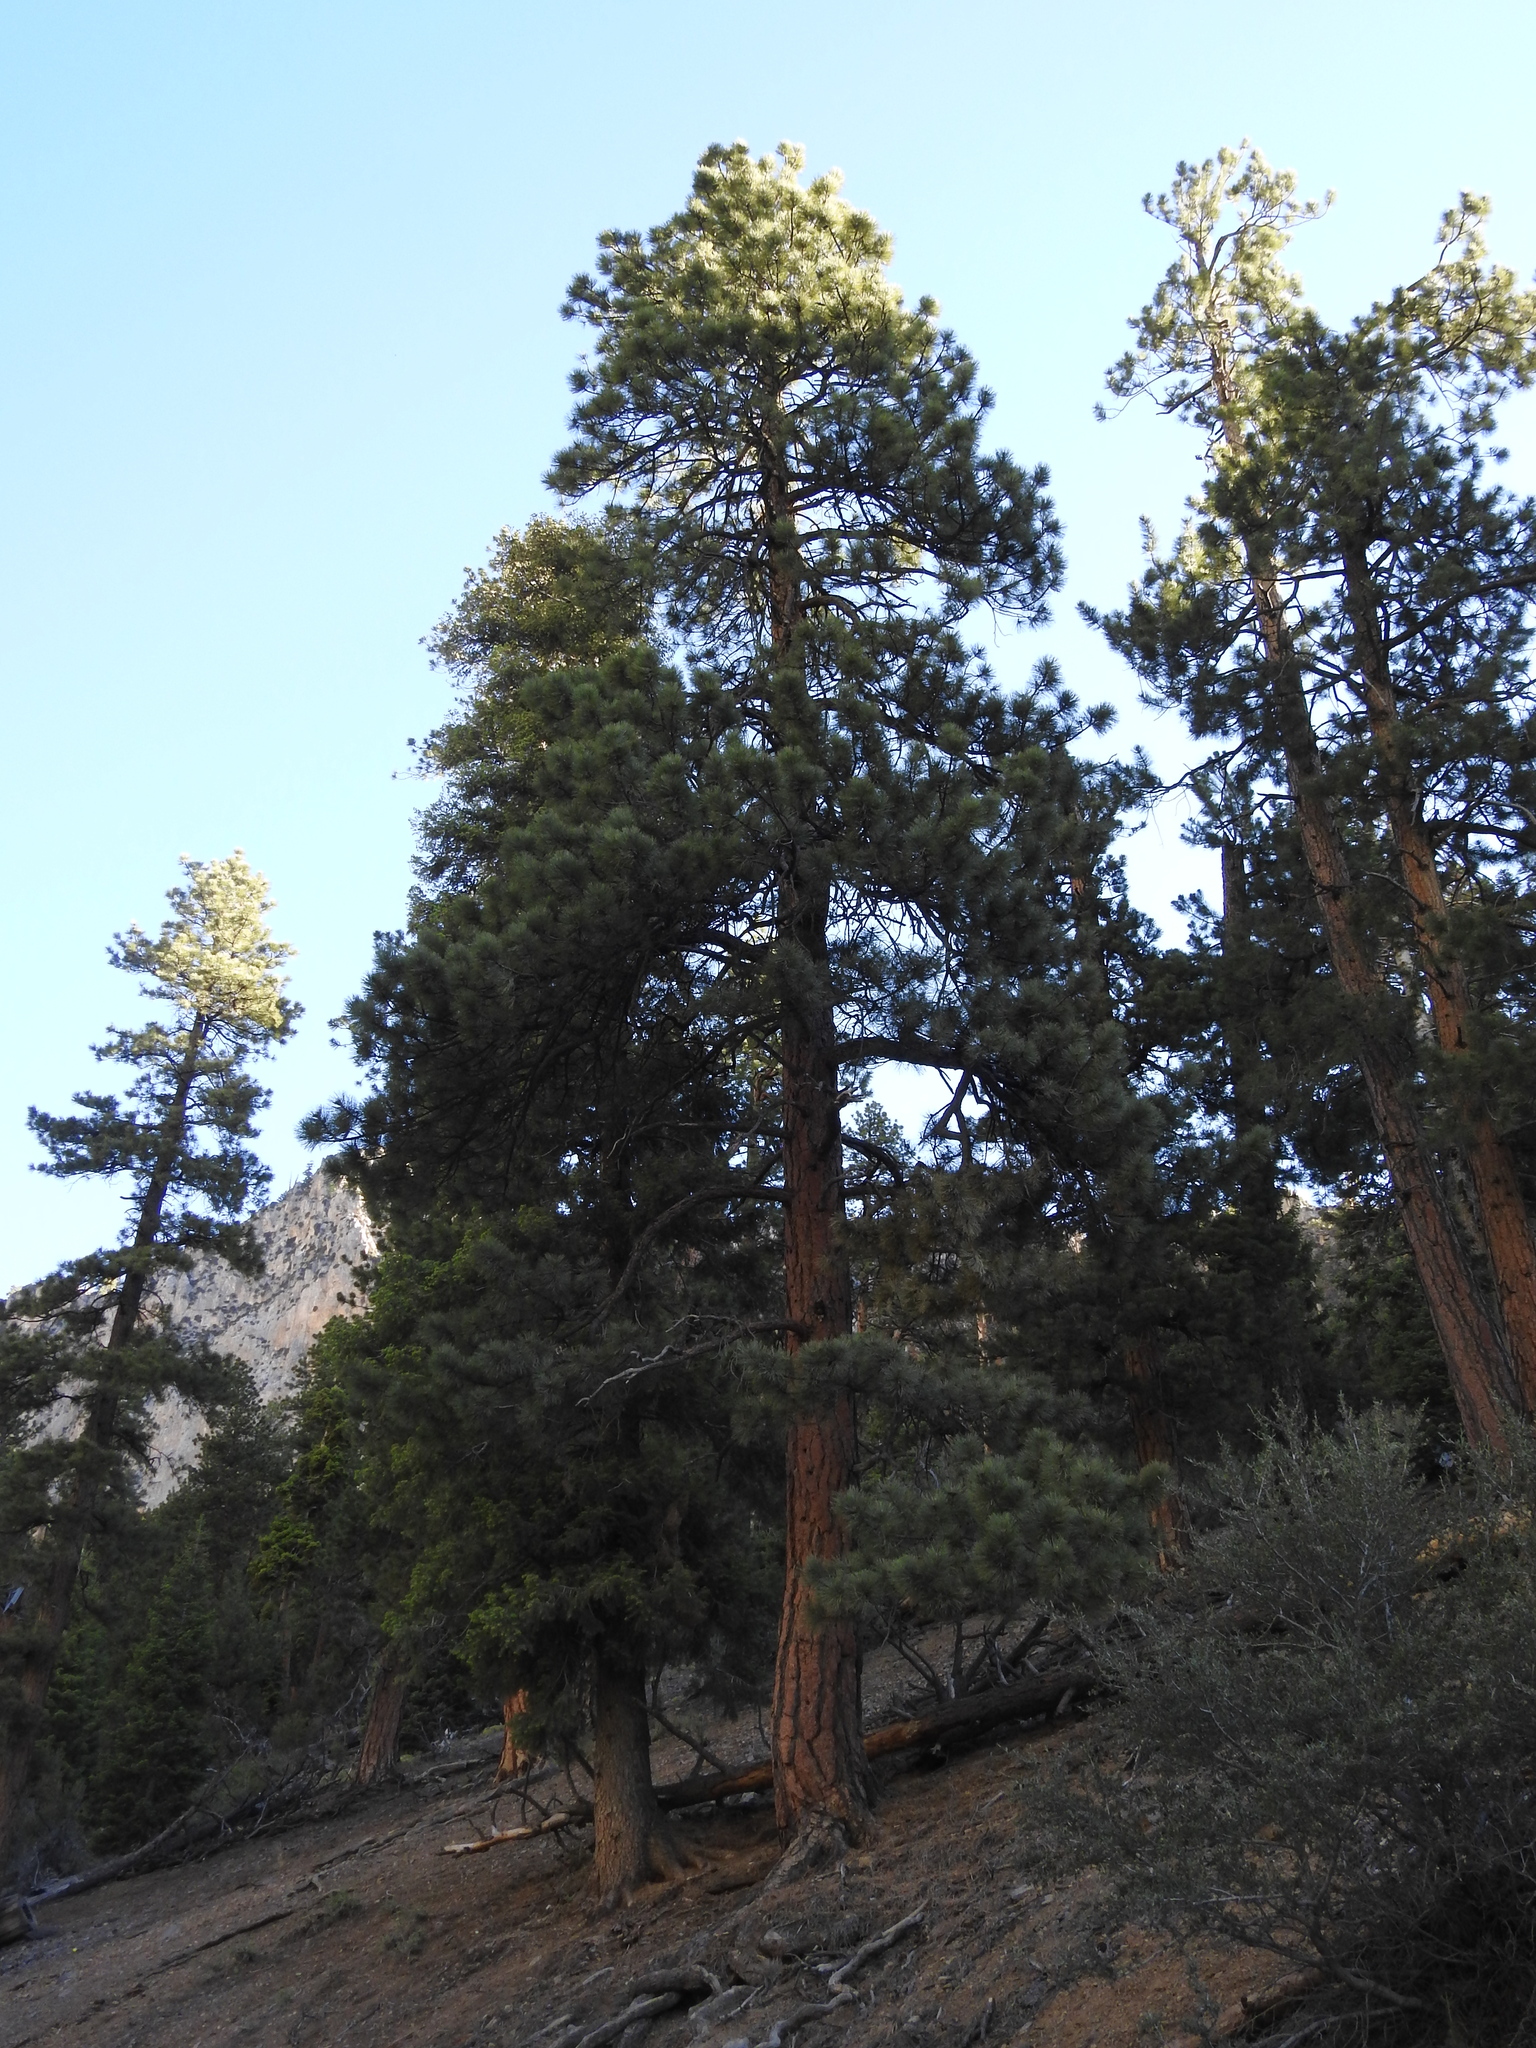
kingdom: Plantae
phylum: Tracheophyta
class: Pinopsida
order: Pinales
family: Pinaceae
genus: Pinus
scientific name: Pinus ponderosa
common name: Western yellow-pine
